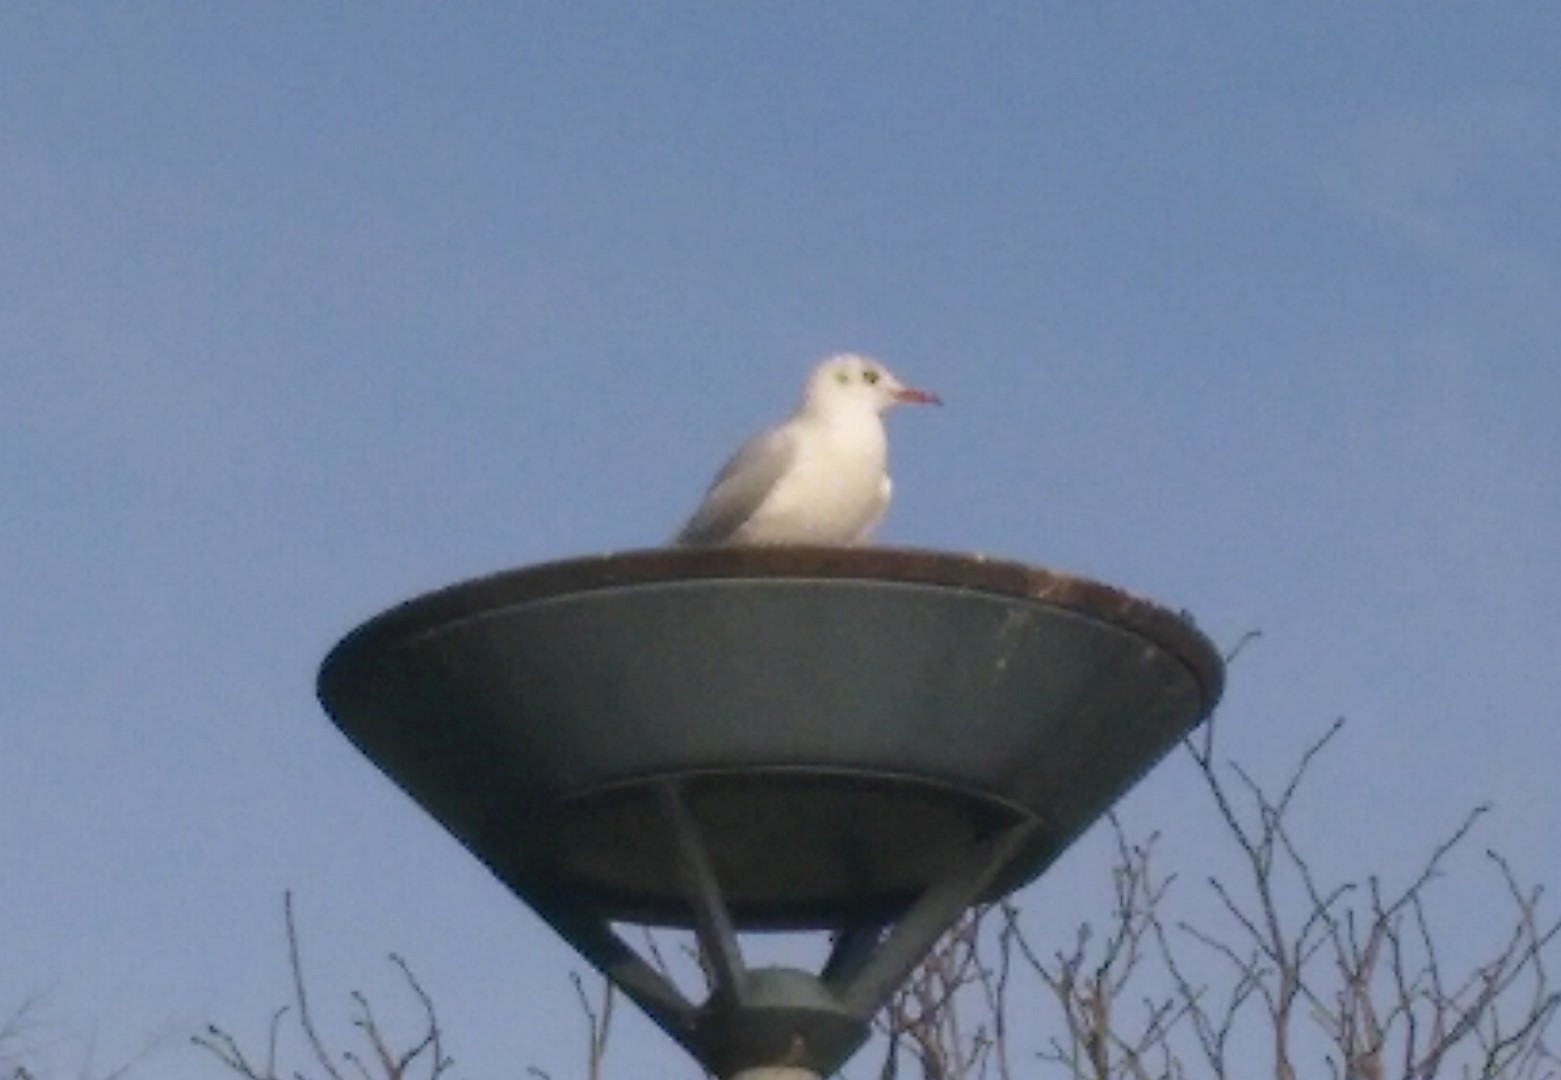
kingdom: Animalia
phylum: Chordata
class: Aves
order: Charadriiformes
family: Laridae
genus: Chroicocephalus
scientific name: Chroicocephalus ridibundus
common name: Black-headed gull
